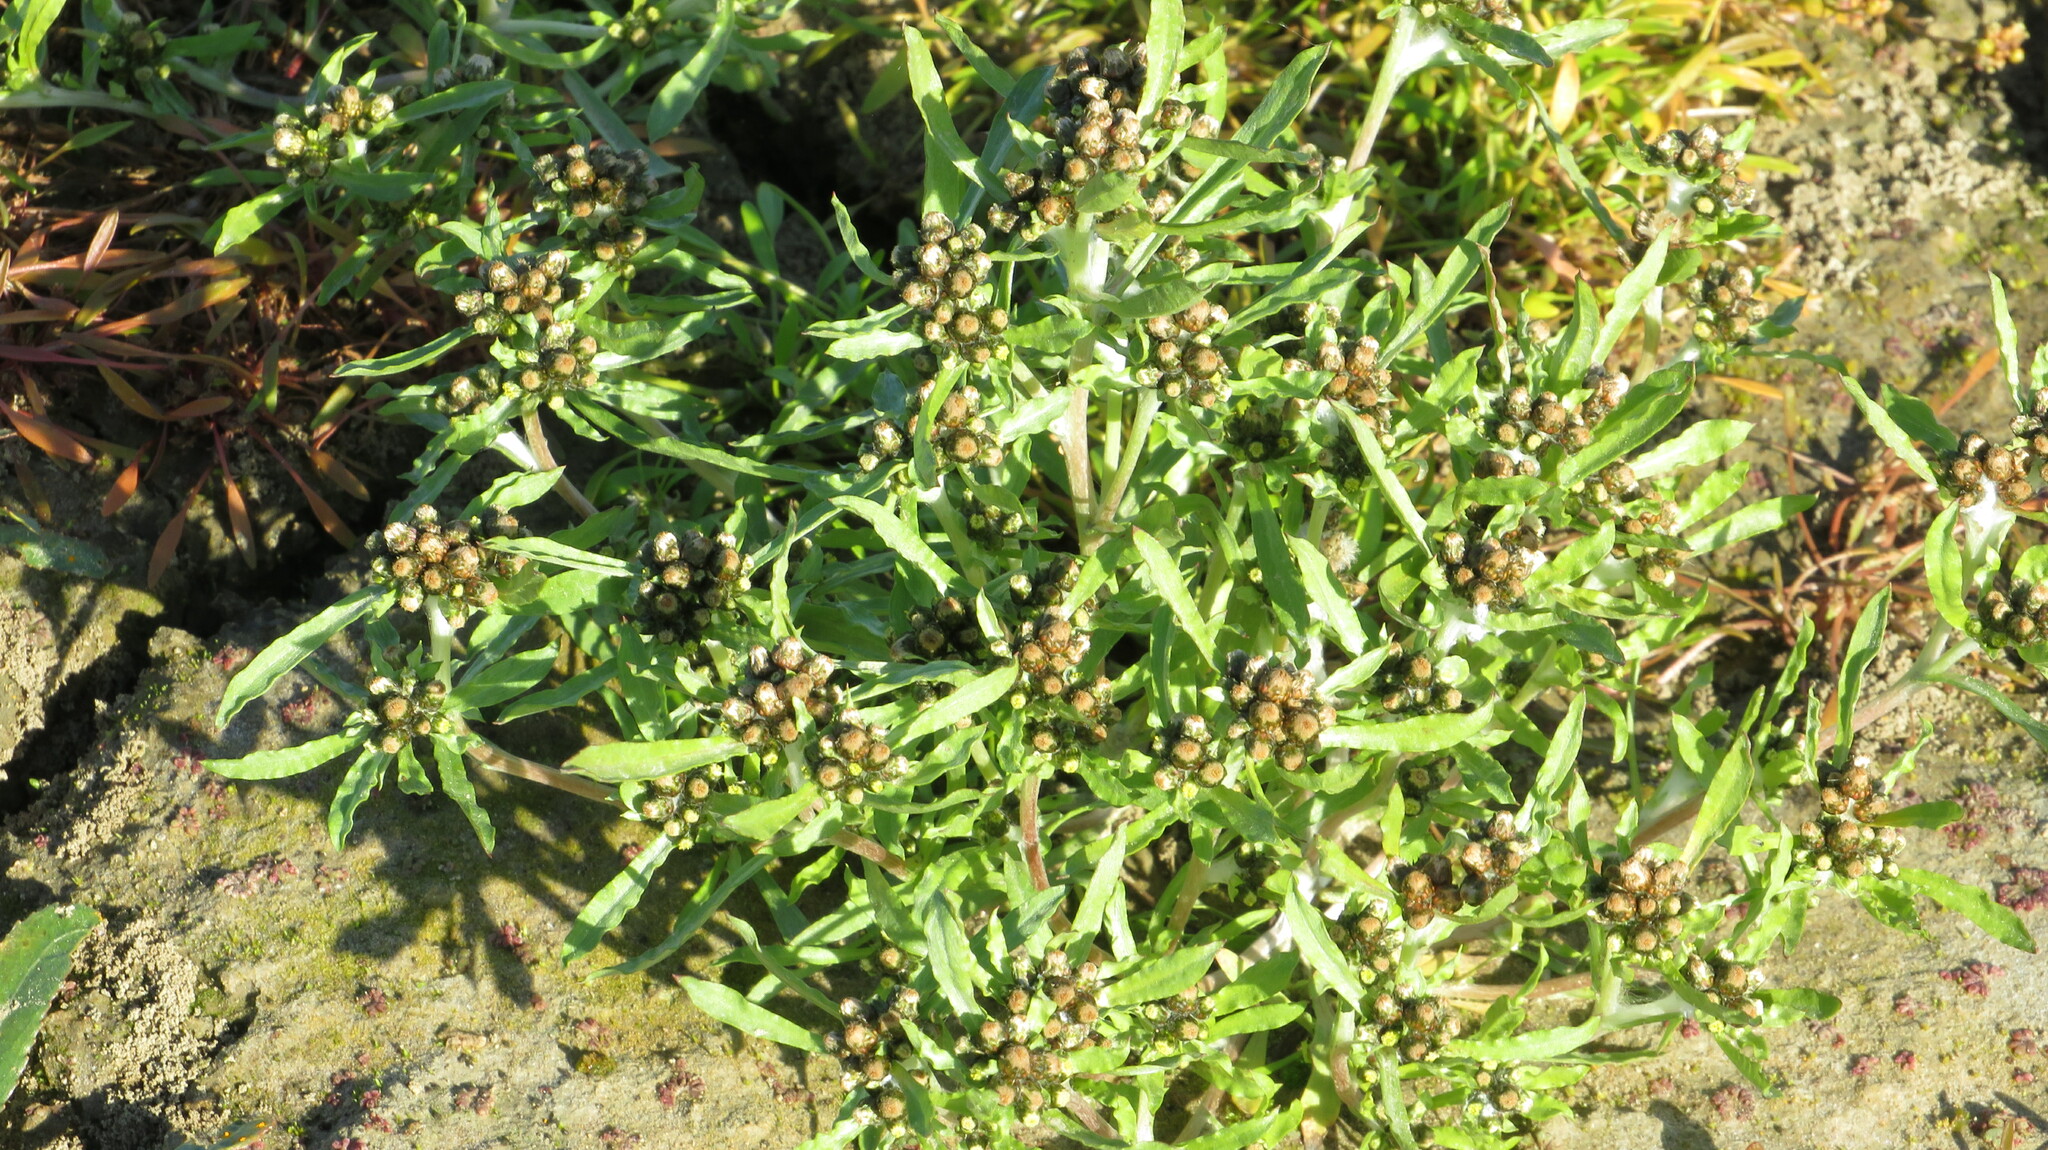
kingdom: Plantae
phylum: Tracheophyta
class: Magnoliopsida
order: Asterales
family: Asteraceae
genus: Gnaphalium
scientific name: Gnaphalium pilulare
